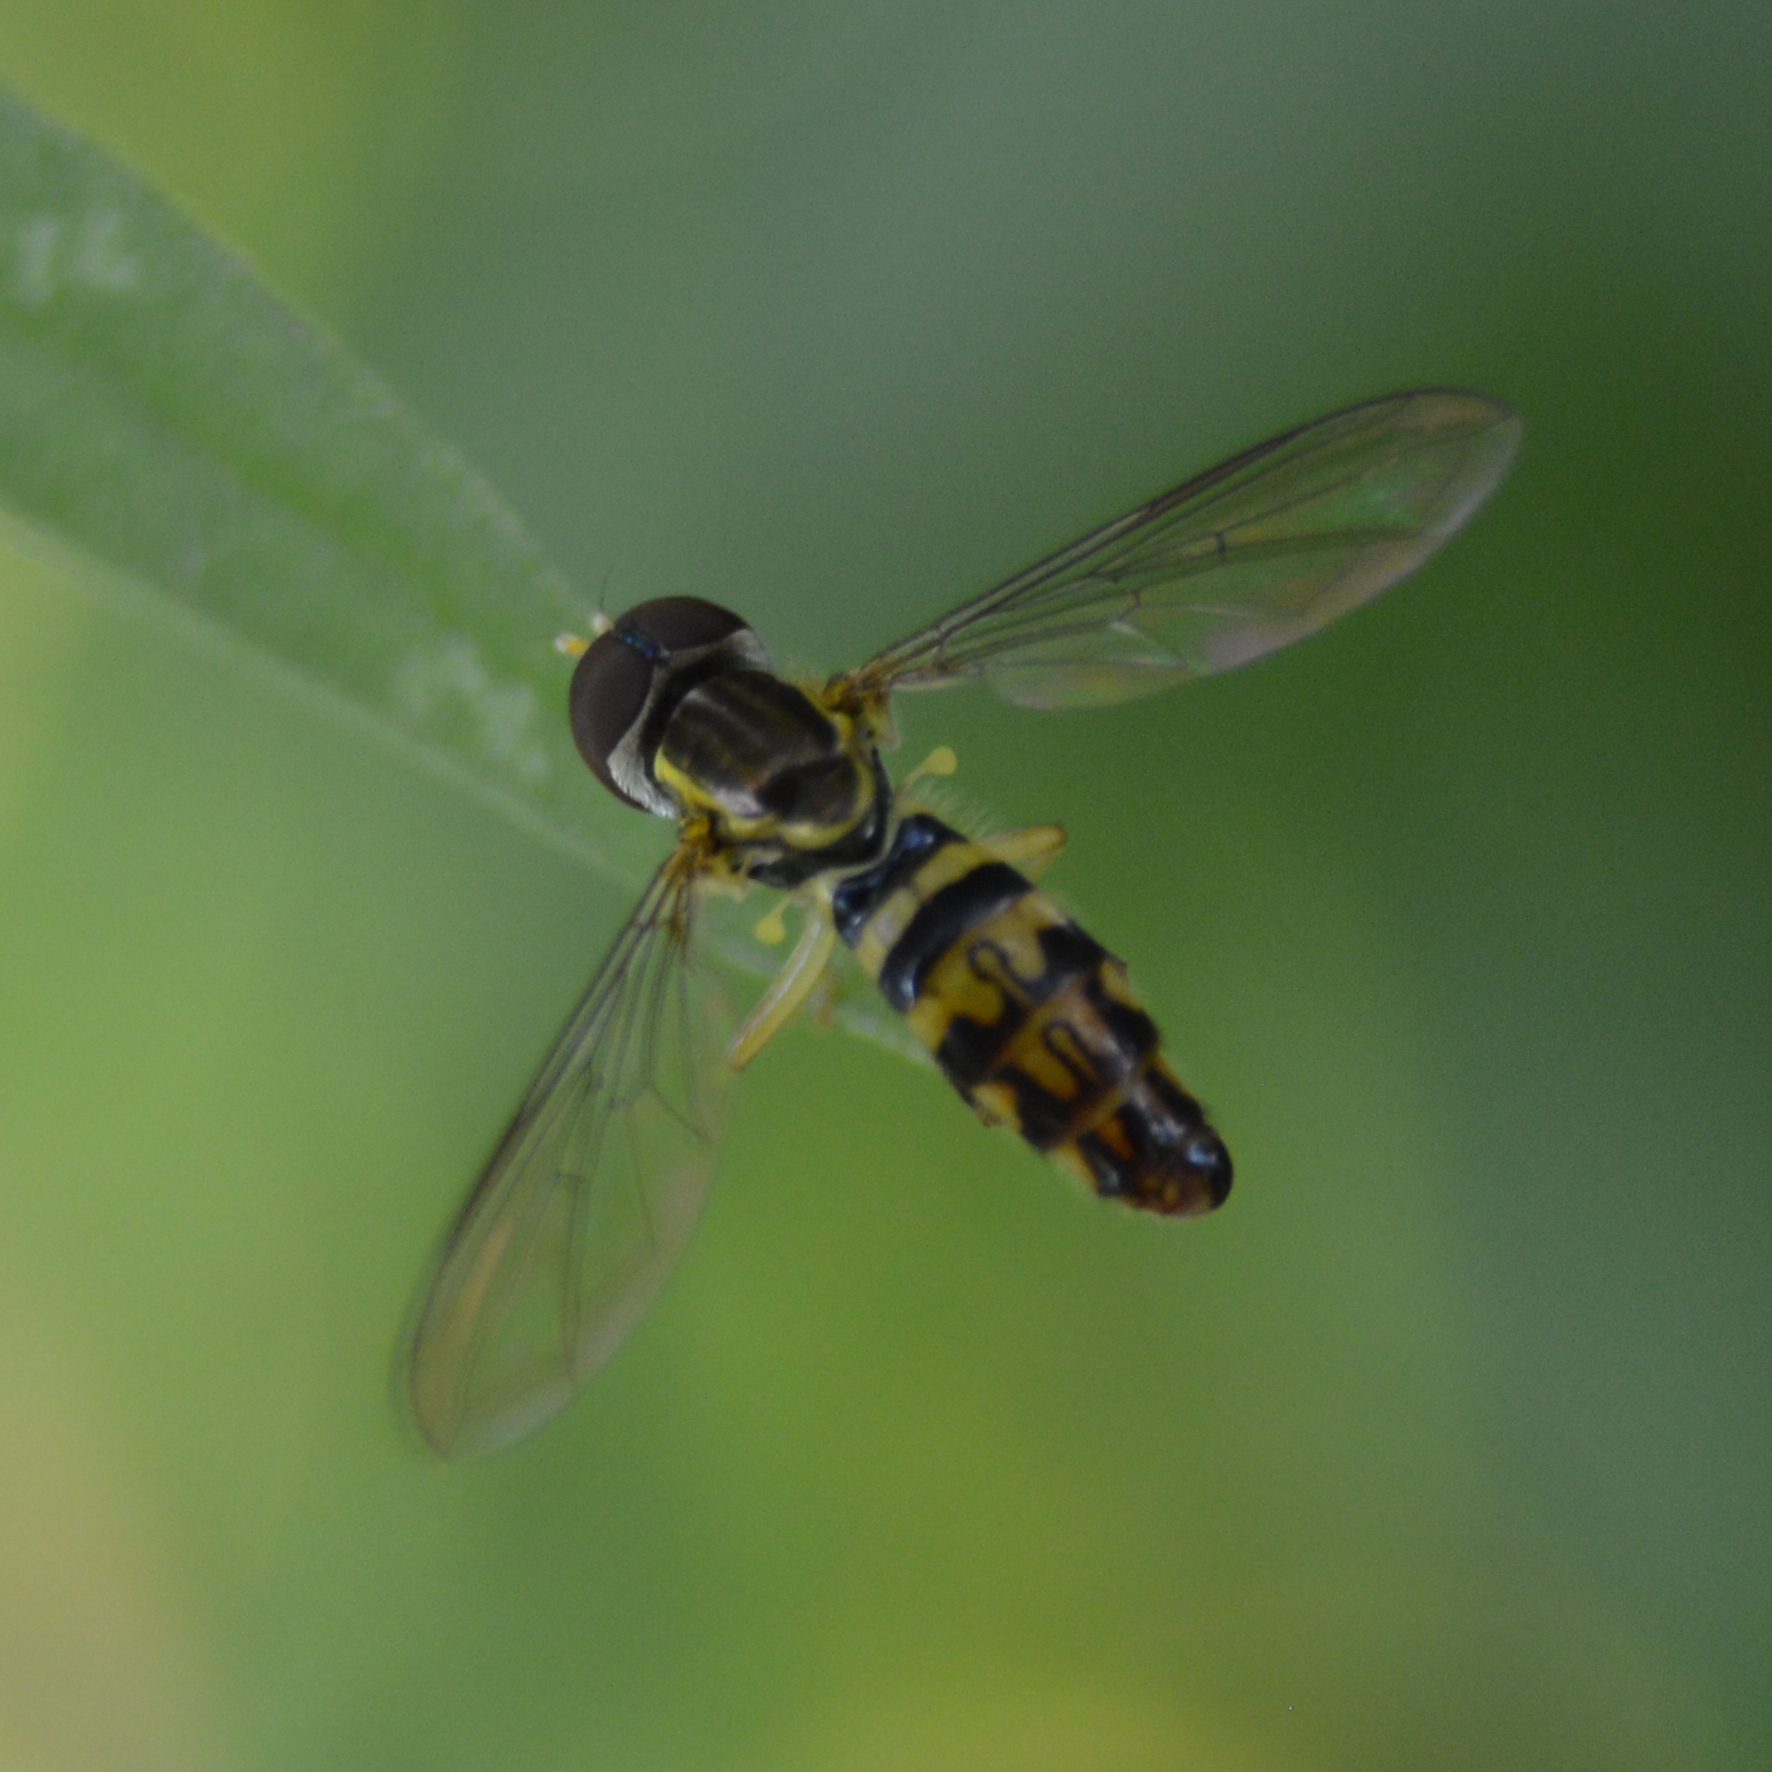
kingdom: Animalia
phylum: Arthropoda
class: Insecta
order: Diptera
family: Syrphidae
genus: Toxomerus
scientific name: Toxomerus geminatus
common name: Eastern calligrapher
